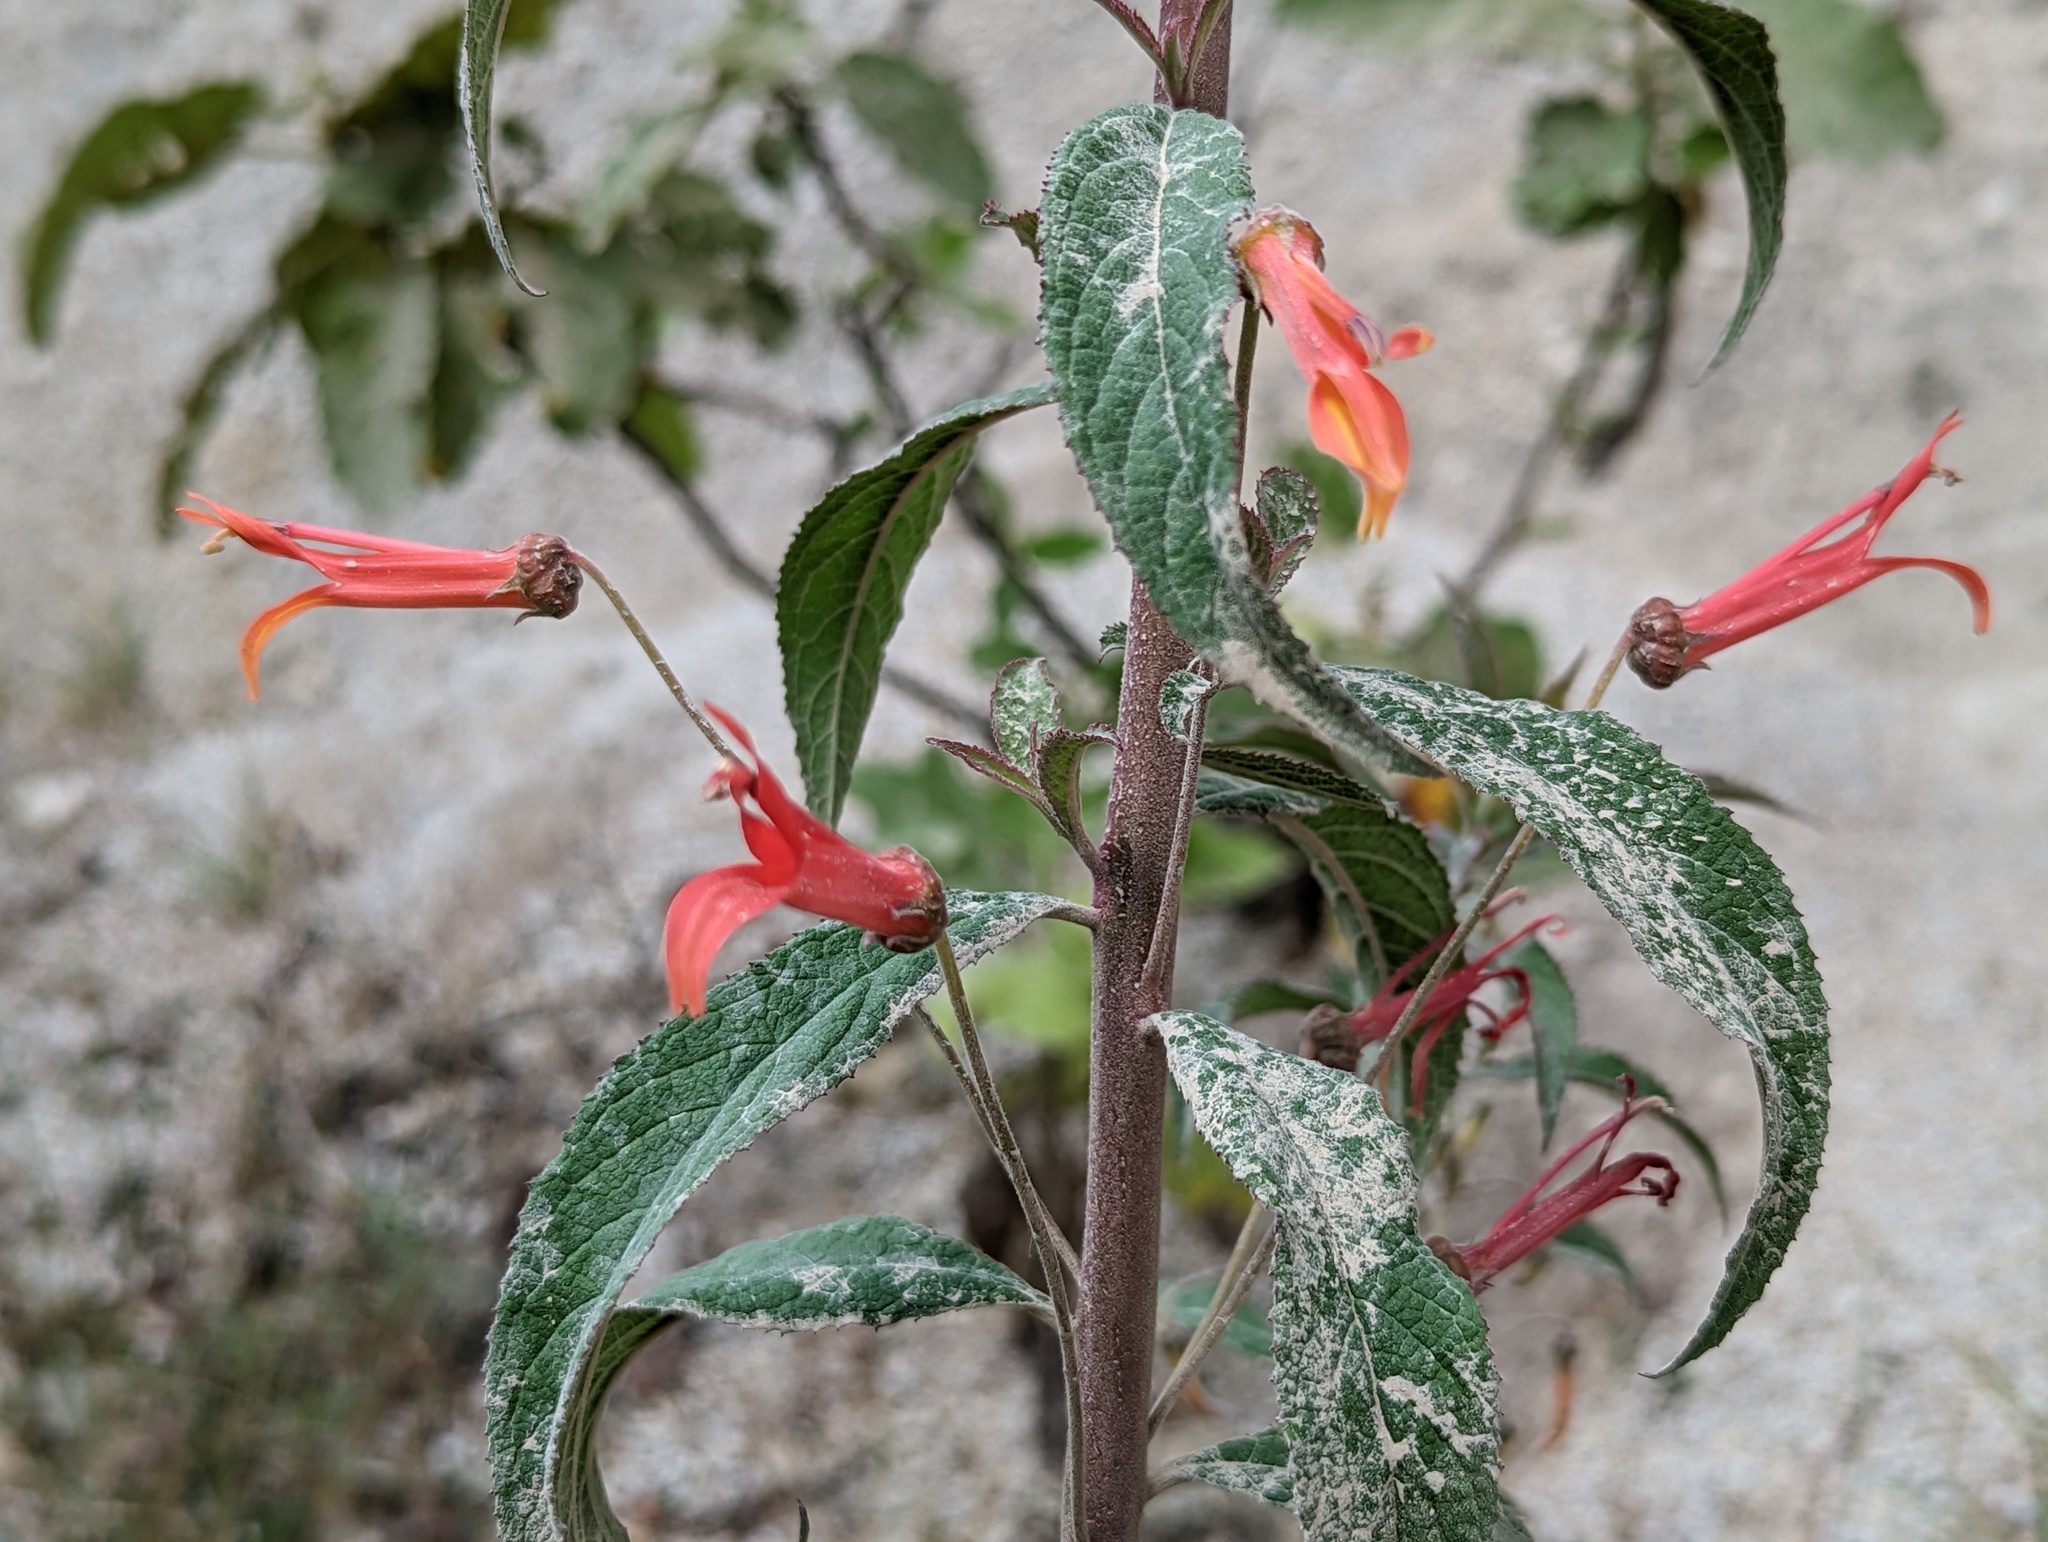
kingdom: Plantae
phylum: Tracheophyta
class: Magnoliopsida
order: Asterales
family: Campanulaceae
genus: Lobelia
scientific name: Lobelia laxiflora
